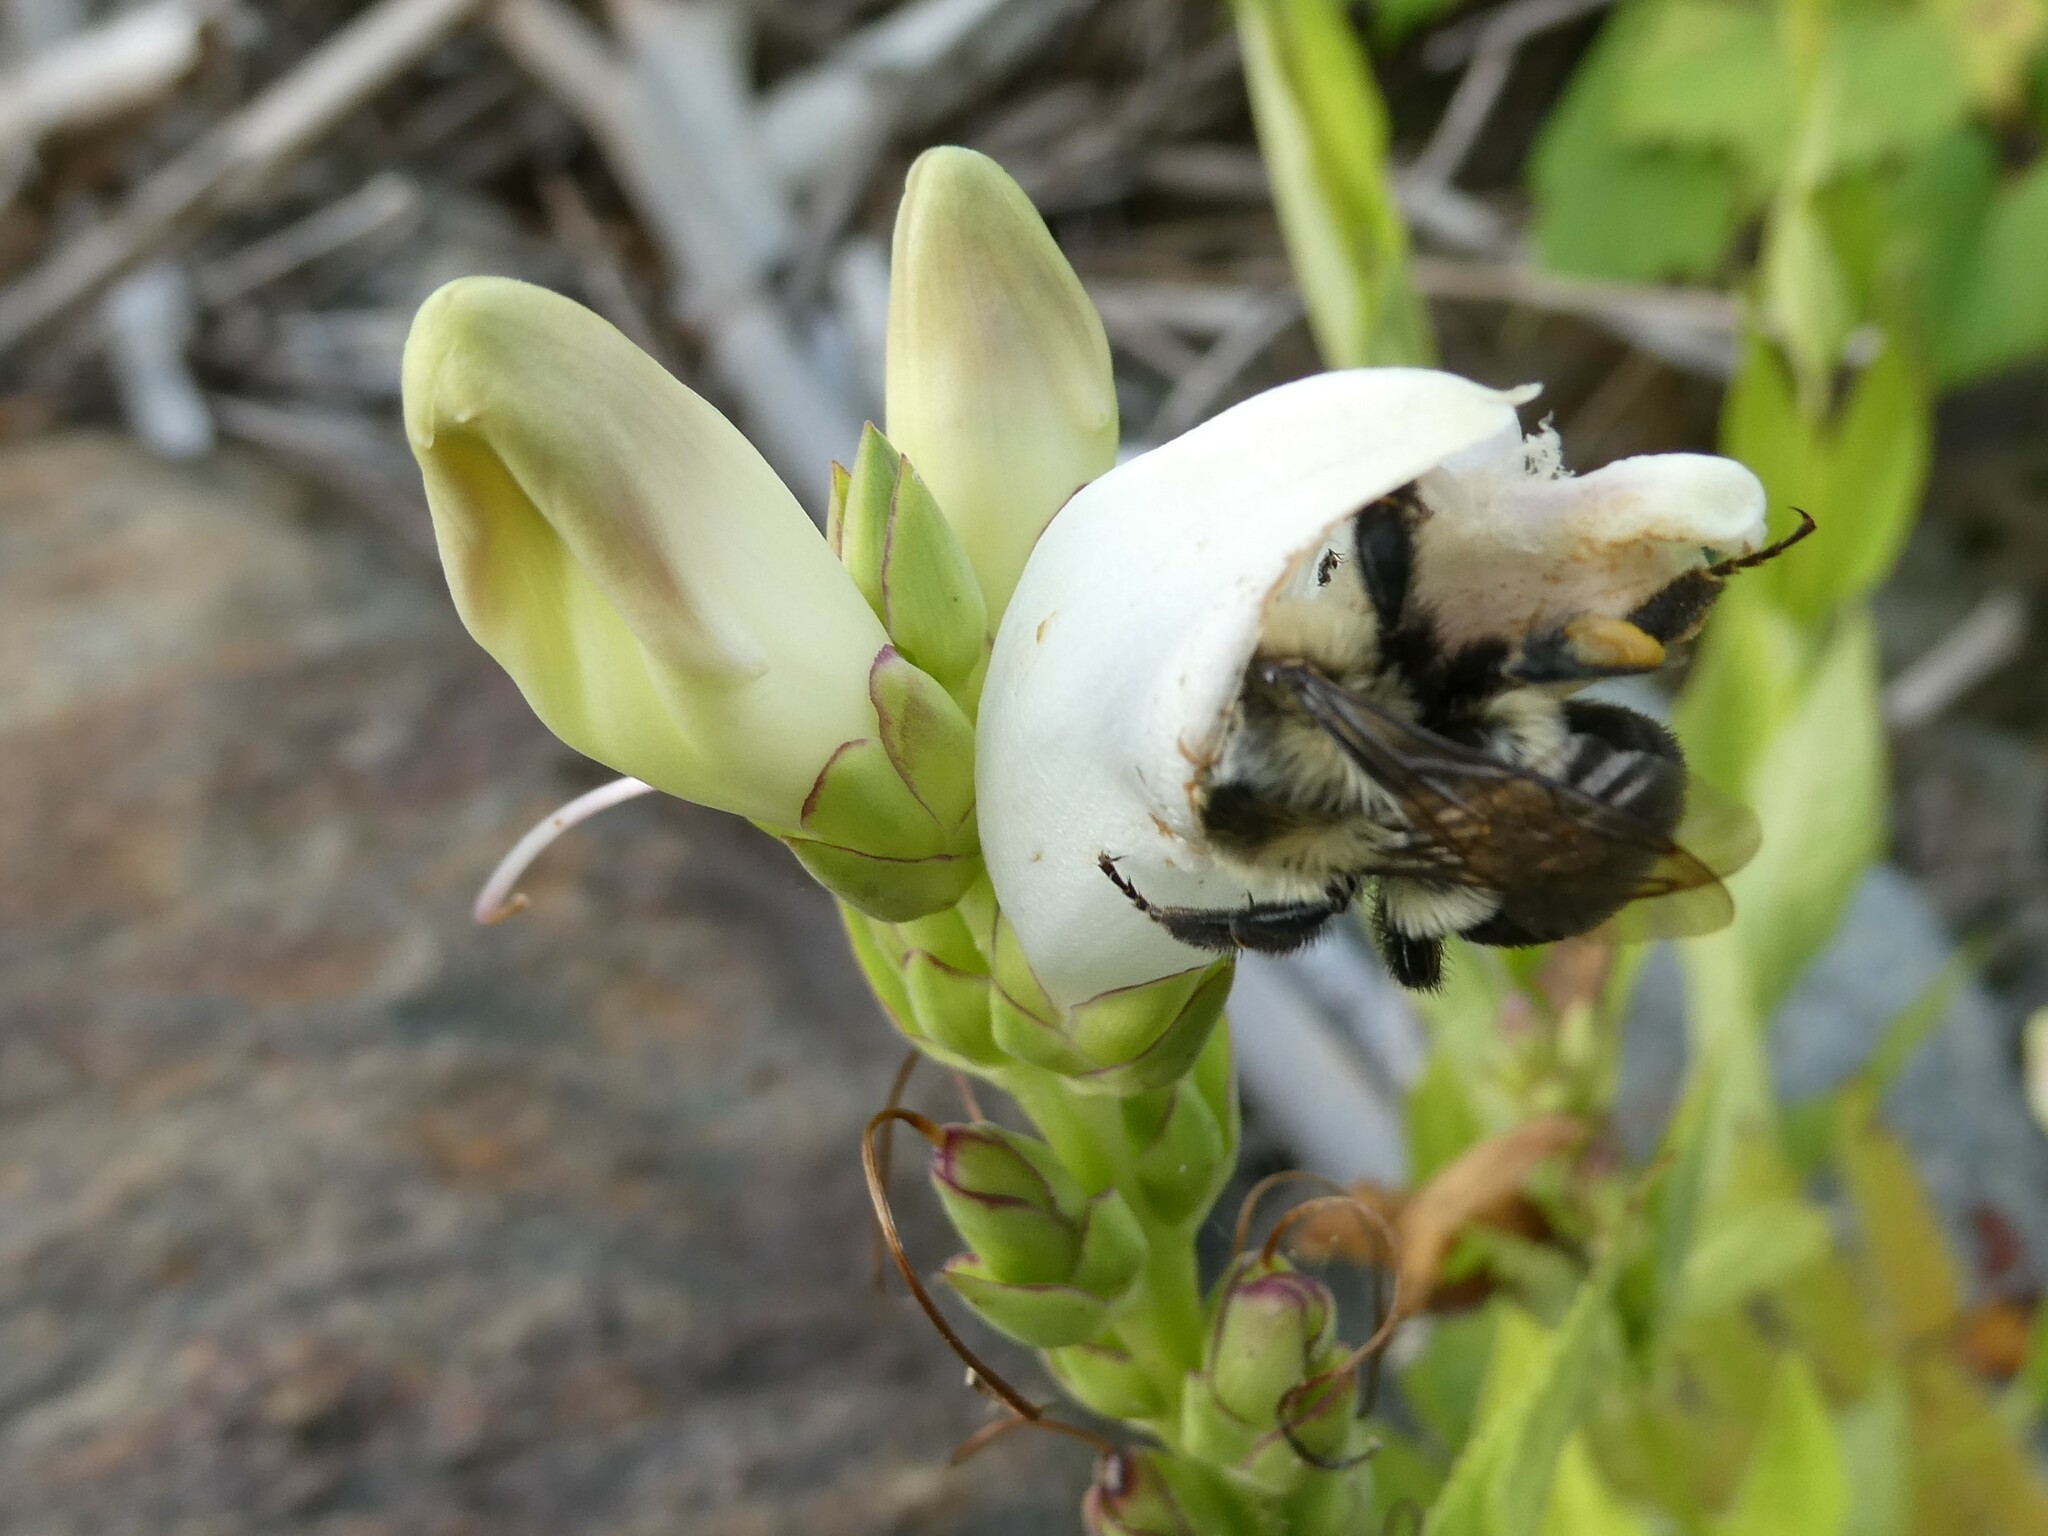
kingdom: Animalia
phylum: Arthropoda
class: Insecta
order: Hymenoptera
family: Apidae
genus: Bombus
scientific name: Bombus impatiens
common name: Common eastern bumble bee
